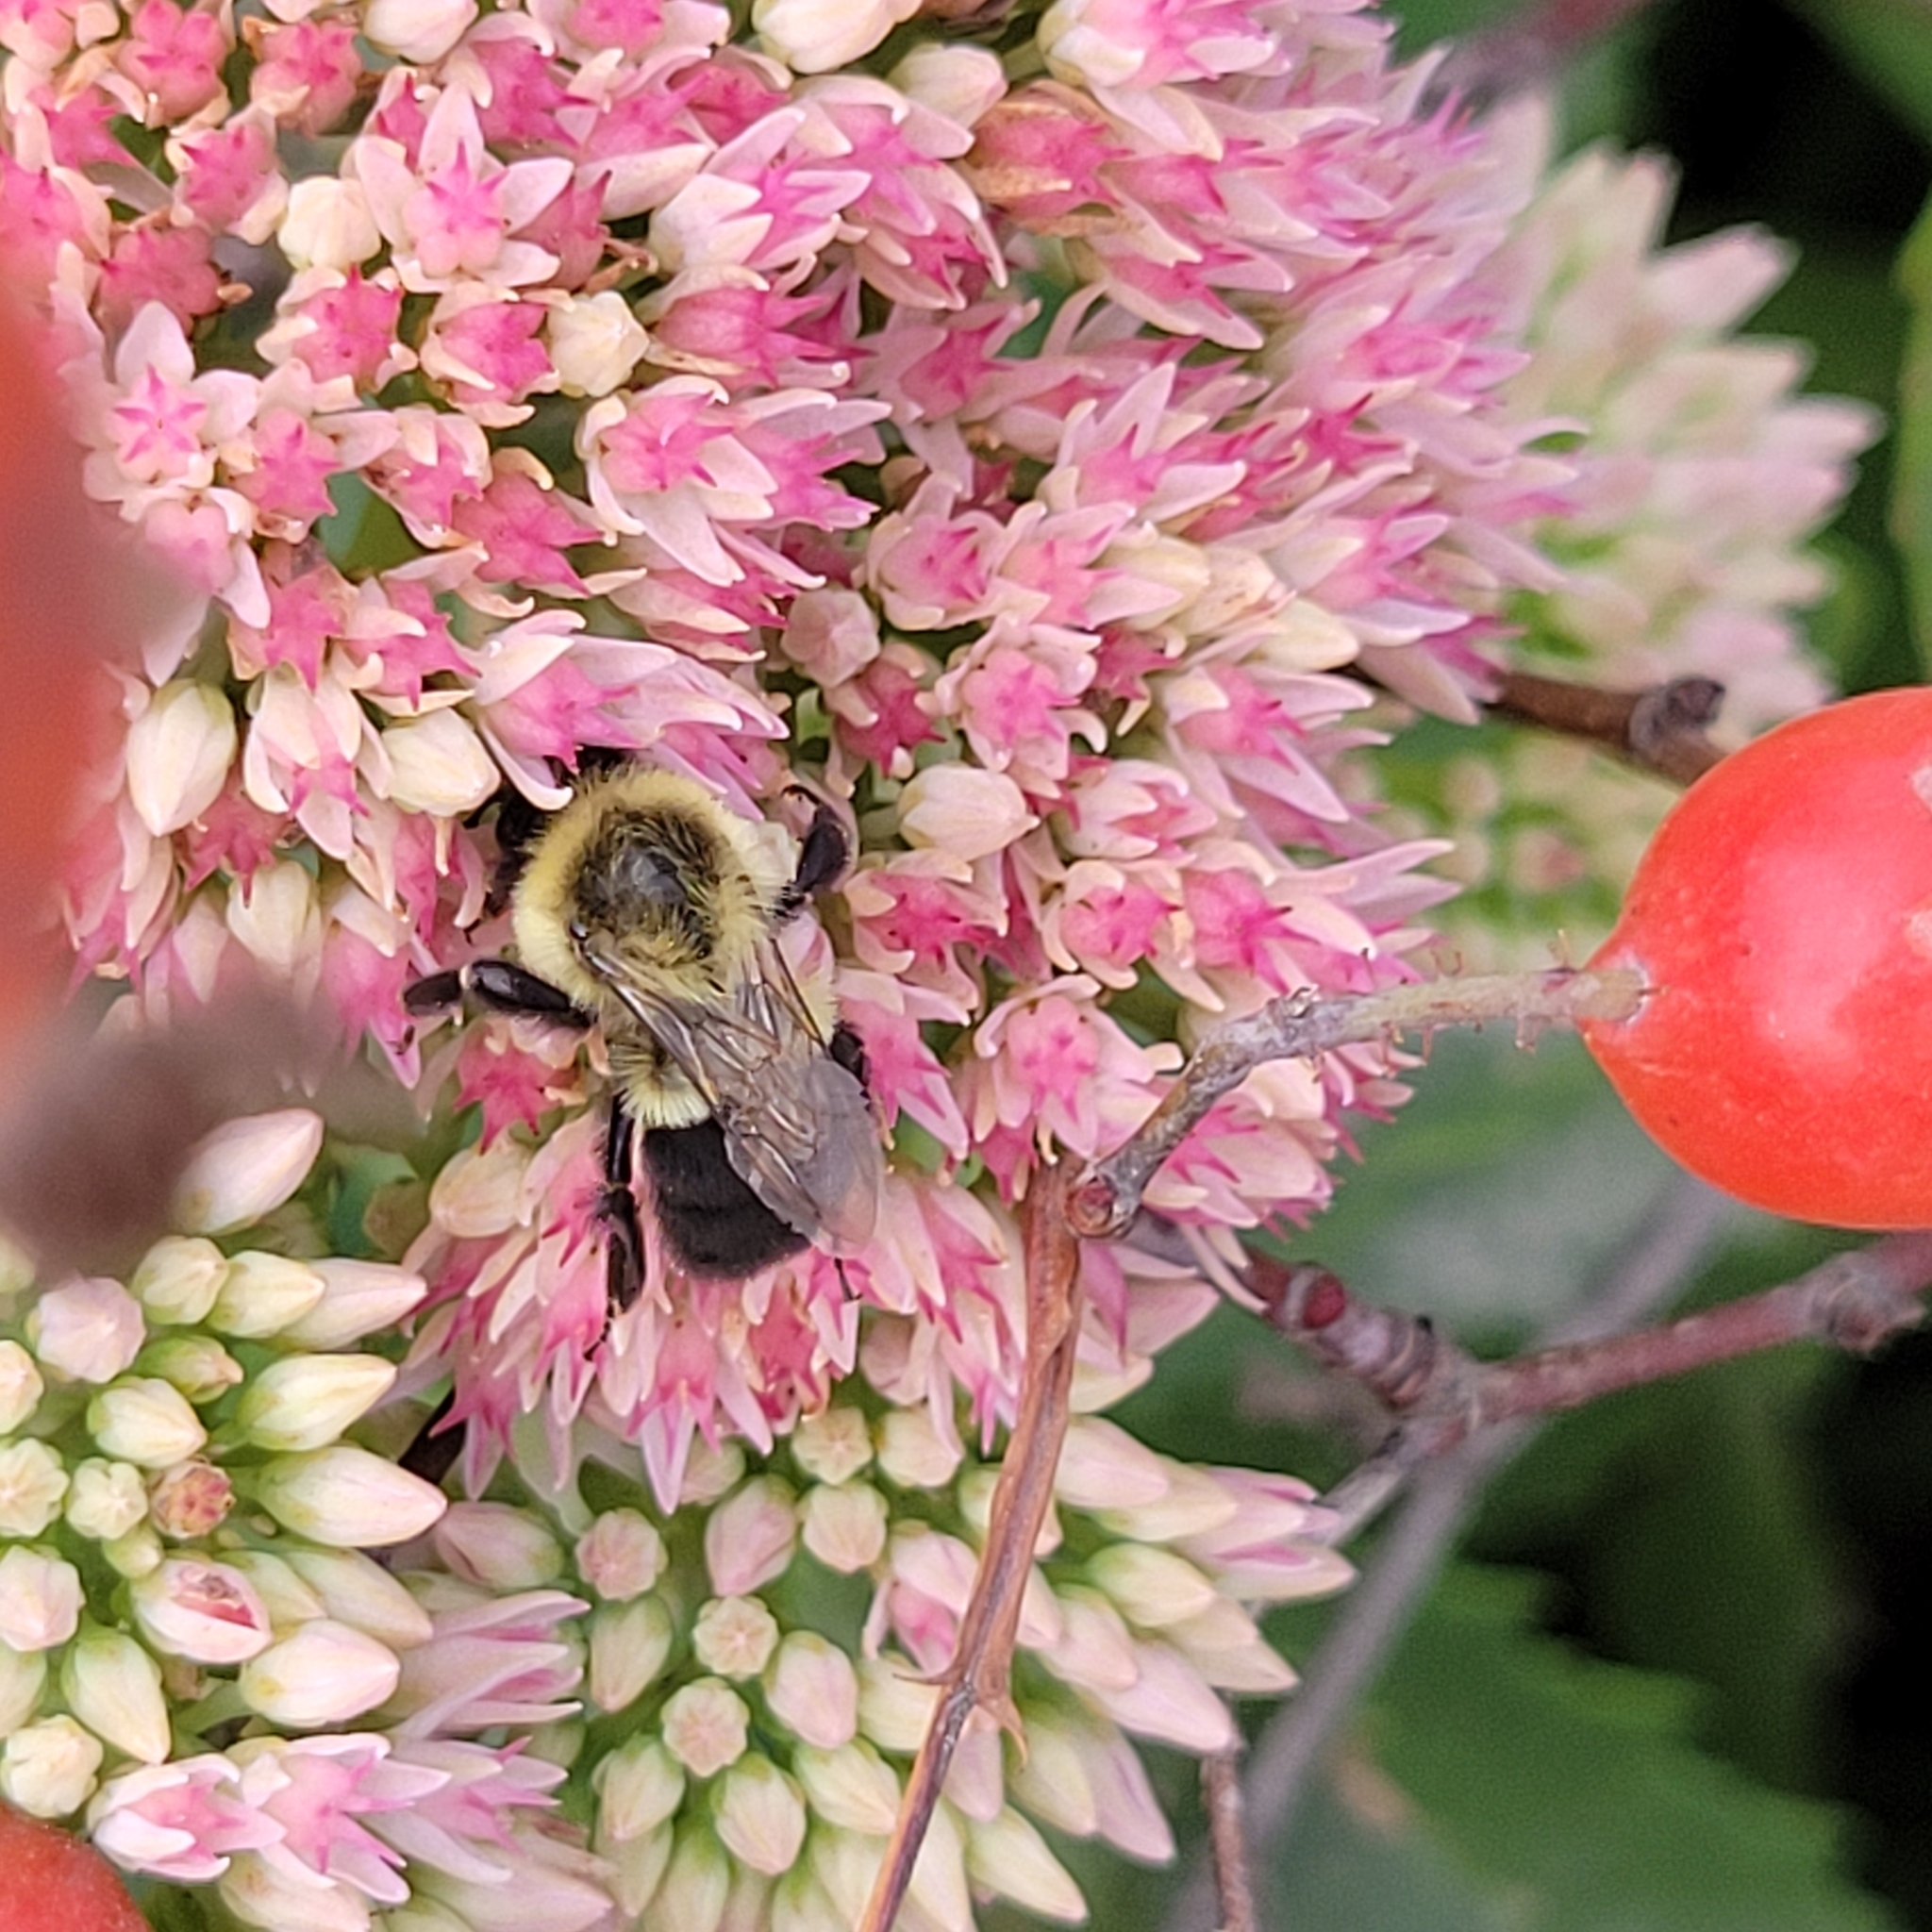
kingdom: Animalia
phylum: Arthropoda
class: Insecta
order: Hymenoptera
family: Apidae
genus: Bombus
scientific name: Bombus impatiens
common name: Common eastern bumble bee
